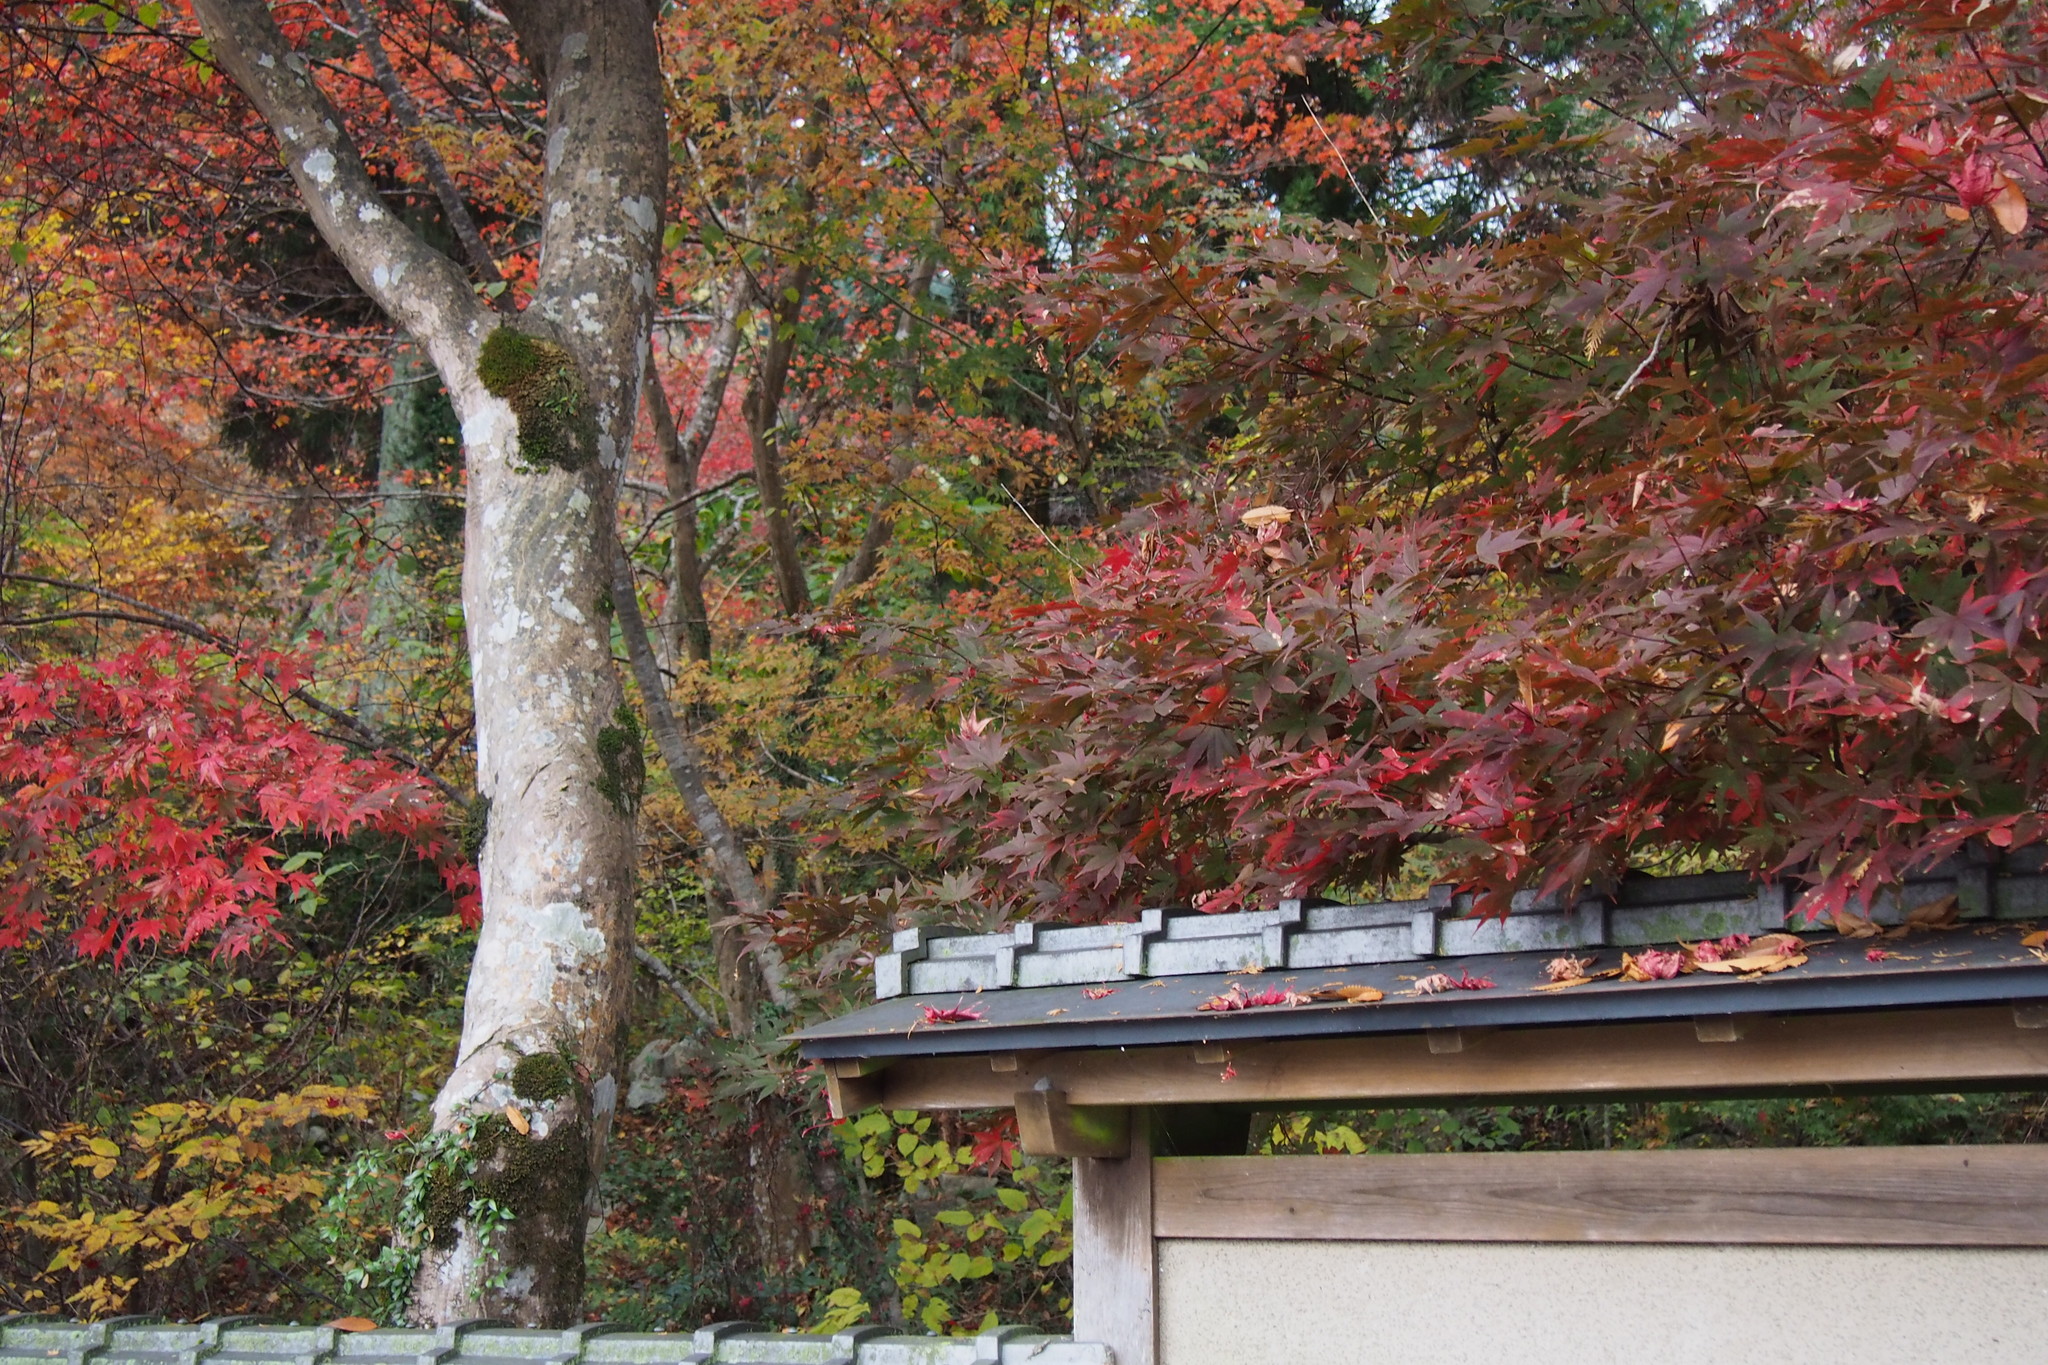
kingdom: Plantae
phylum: Tracheophyta
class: Magnoliopsida
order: Sapindales
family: Sapindaceae
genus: Acer
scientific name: Acer palmatum
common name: Japanese maple
